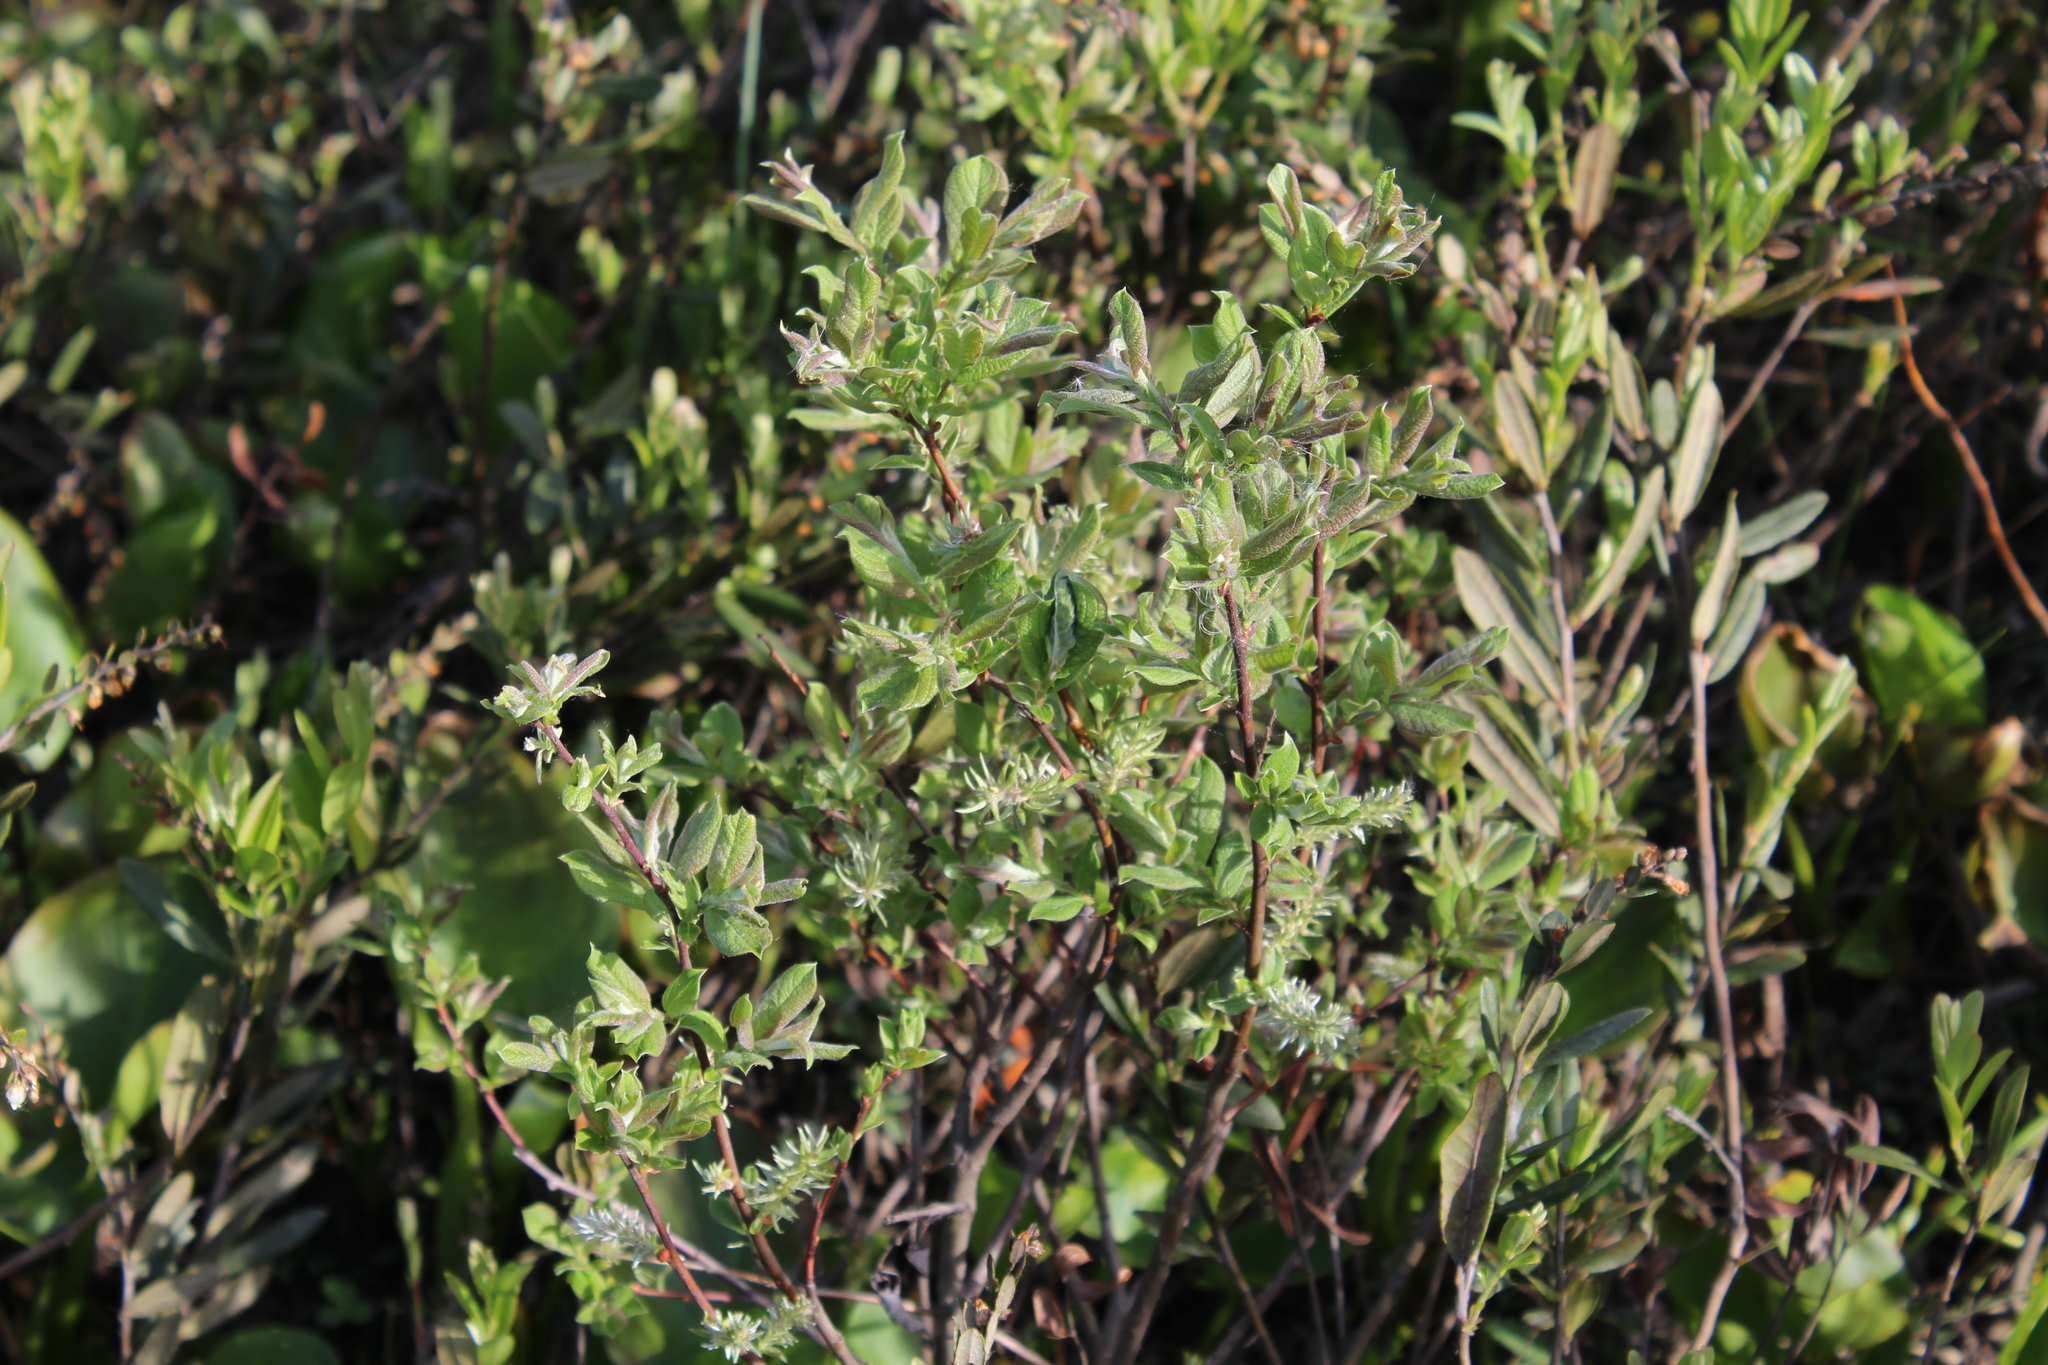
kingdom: Plantae
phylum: Tracheophyta
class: Magnoliopsida
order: Malpighiales
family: Salicaceae
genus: Salix
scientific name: Salix aurita
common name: Eared willow
